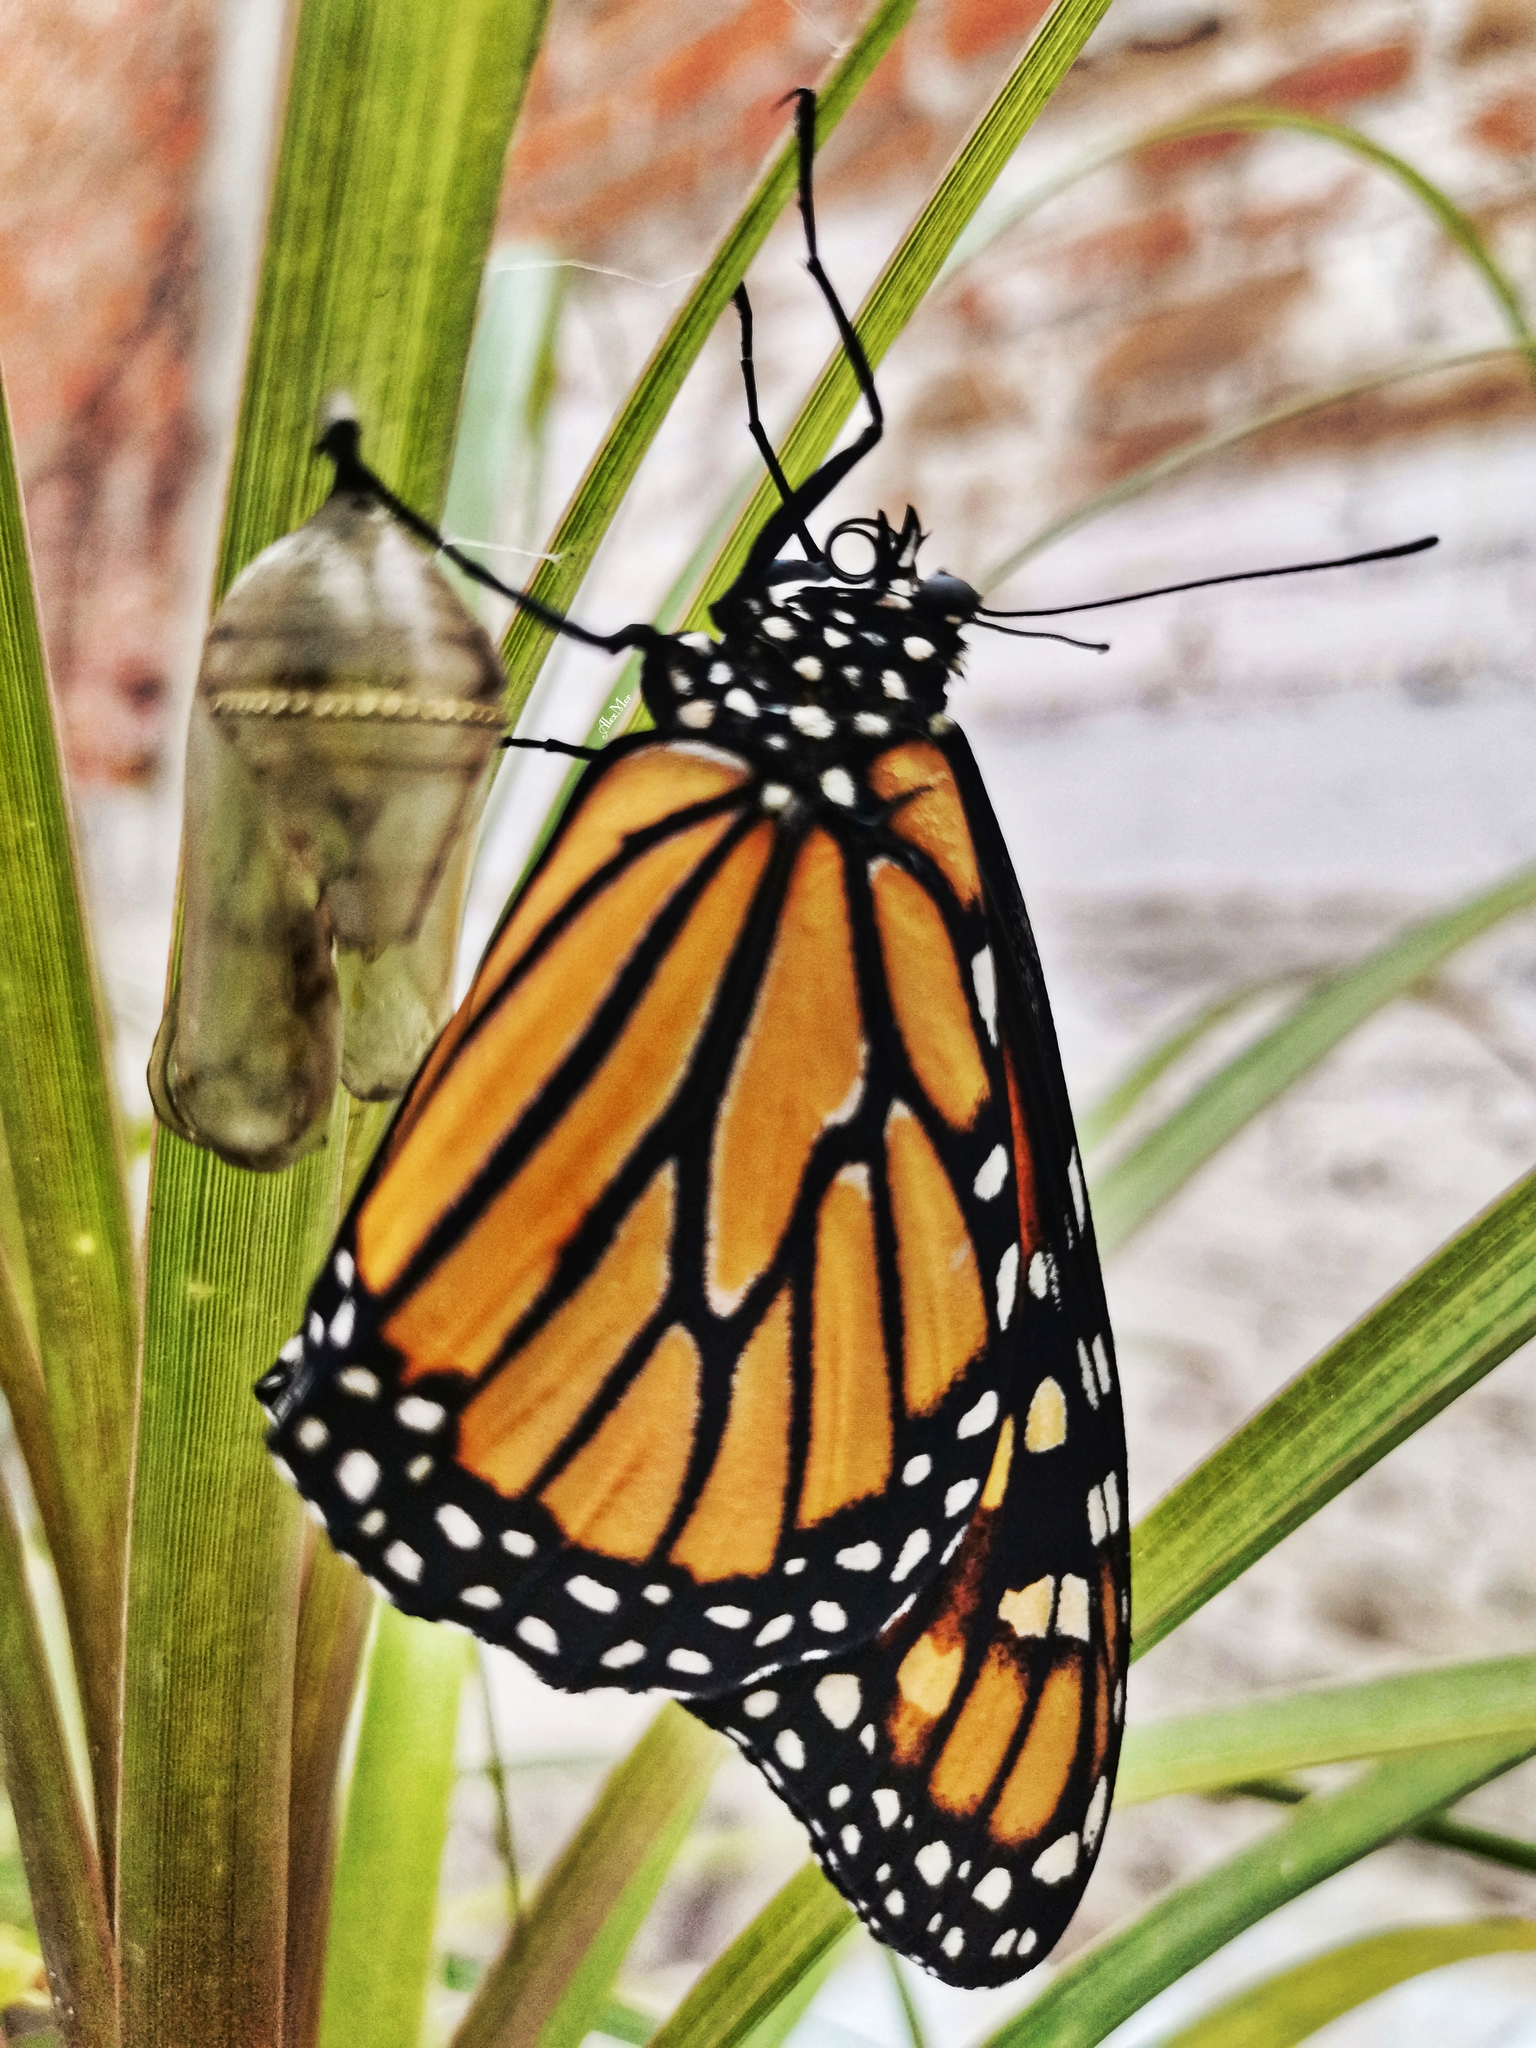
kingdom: Animalia
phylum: Arthropoda
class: Insecta
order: Lepidoptera
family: Nymphalidae
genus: Danaus
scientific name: Danaus plexippus
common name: Monarch
